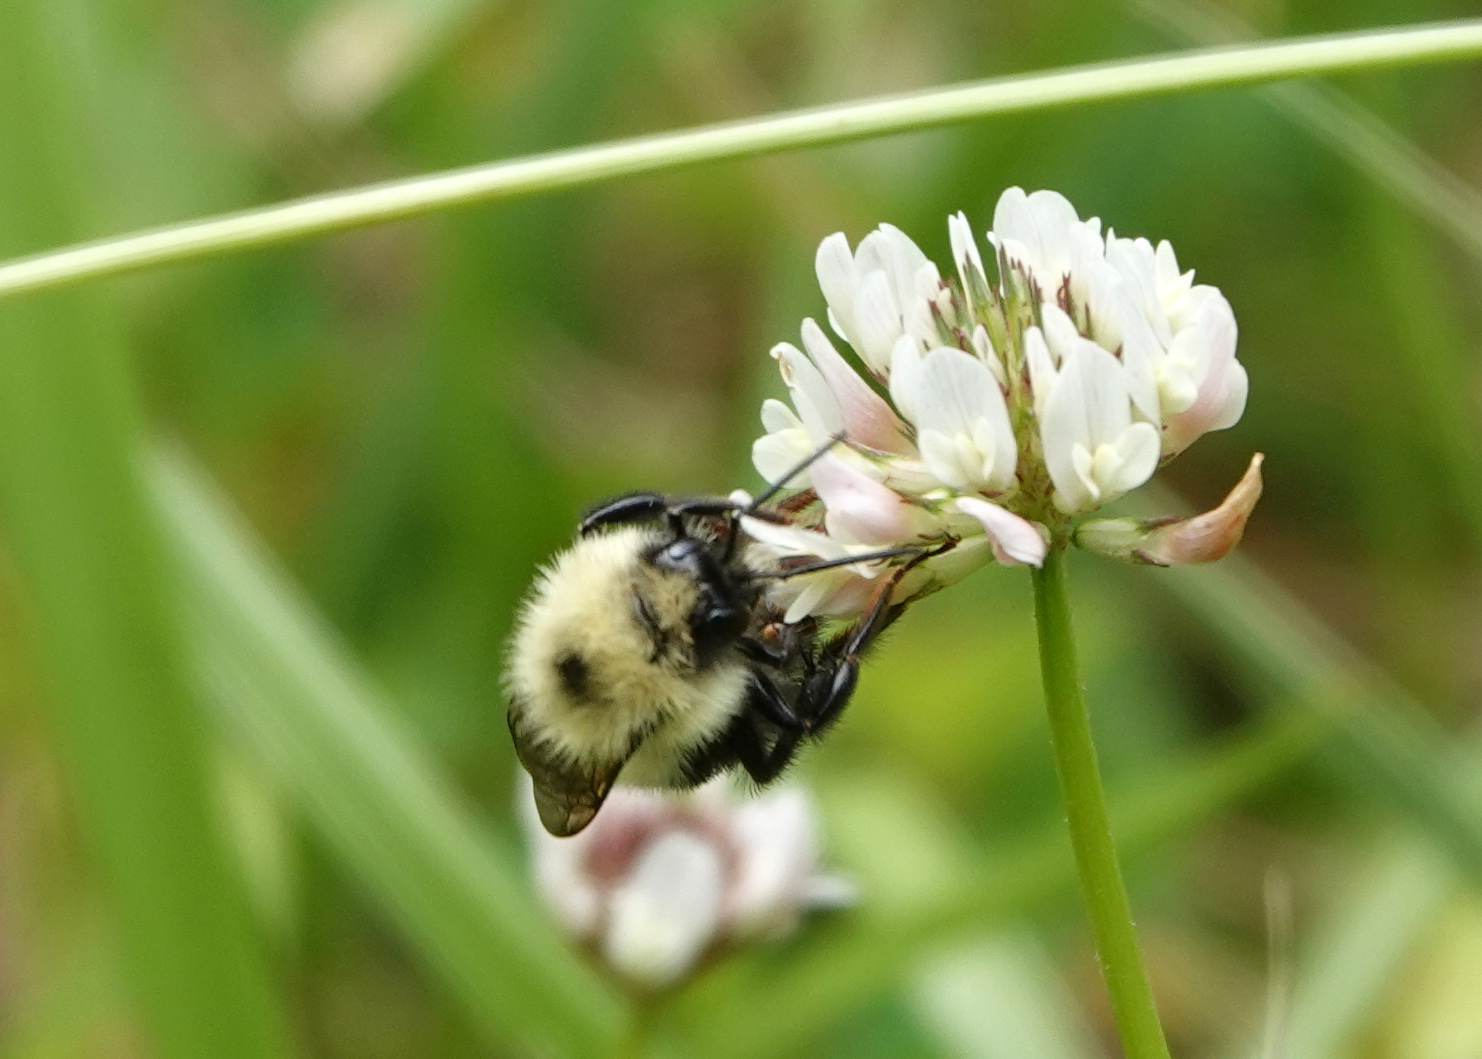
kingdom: Animalia
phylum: Arthropoda
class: Insecta
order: Hymenoptera
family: Apidae
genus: Bombus
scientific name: Bombus bimaculatus
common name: Two-spotted bumble bee
